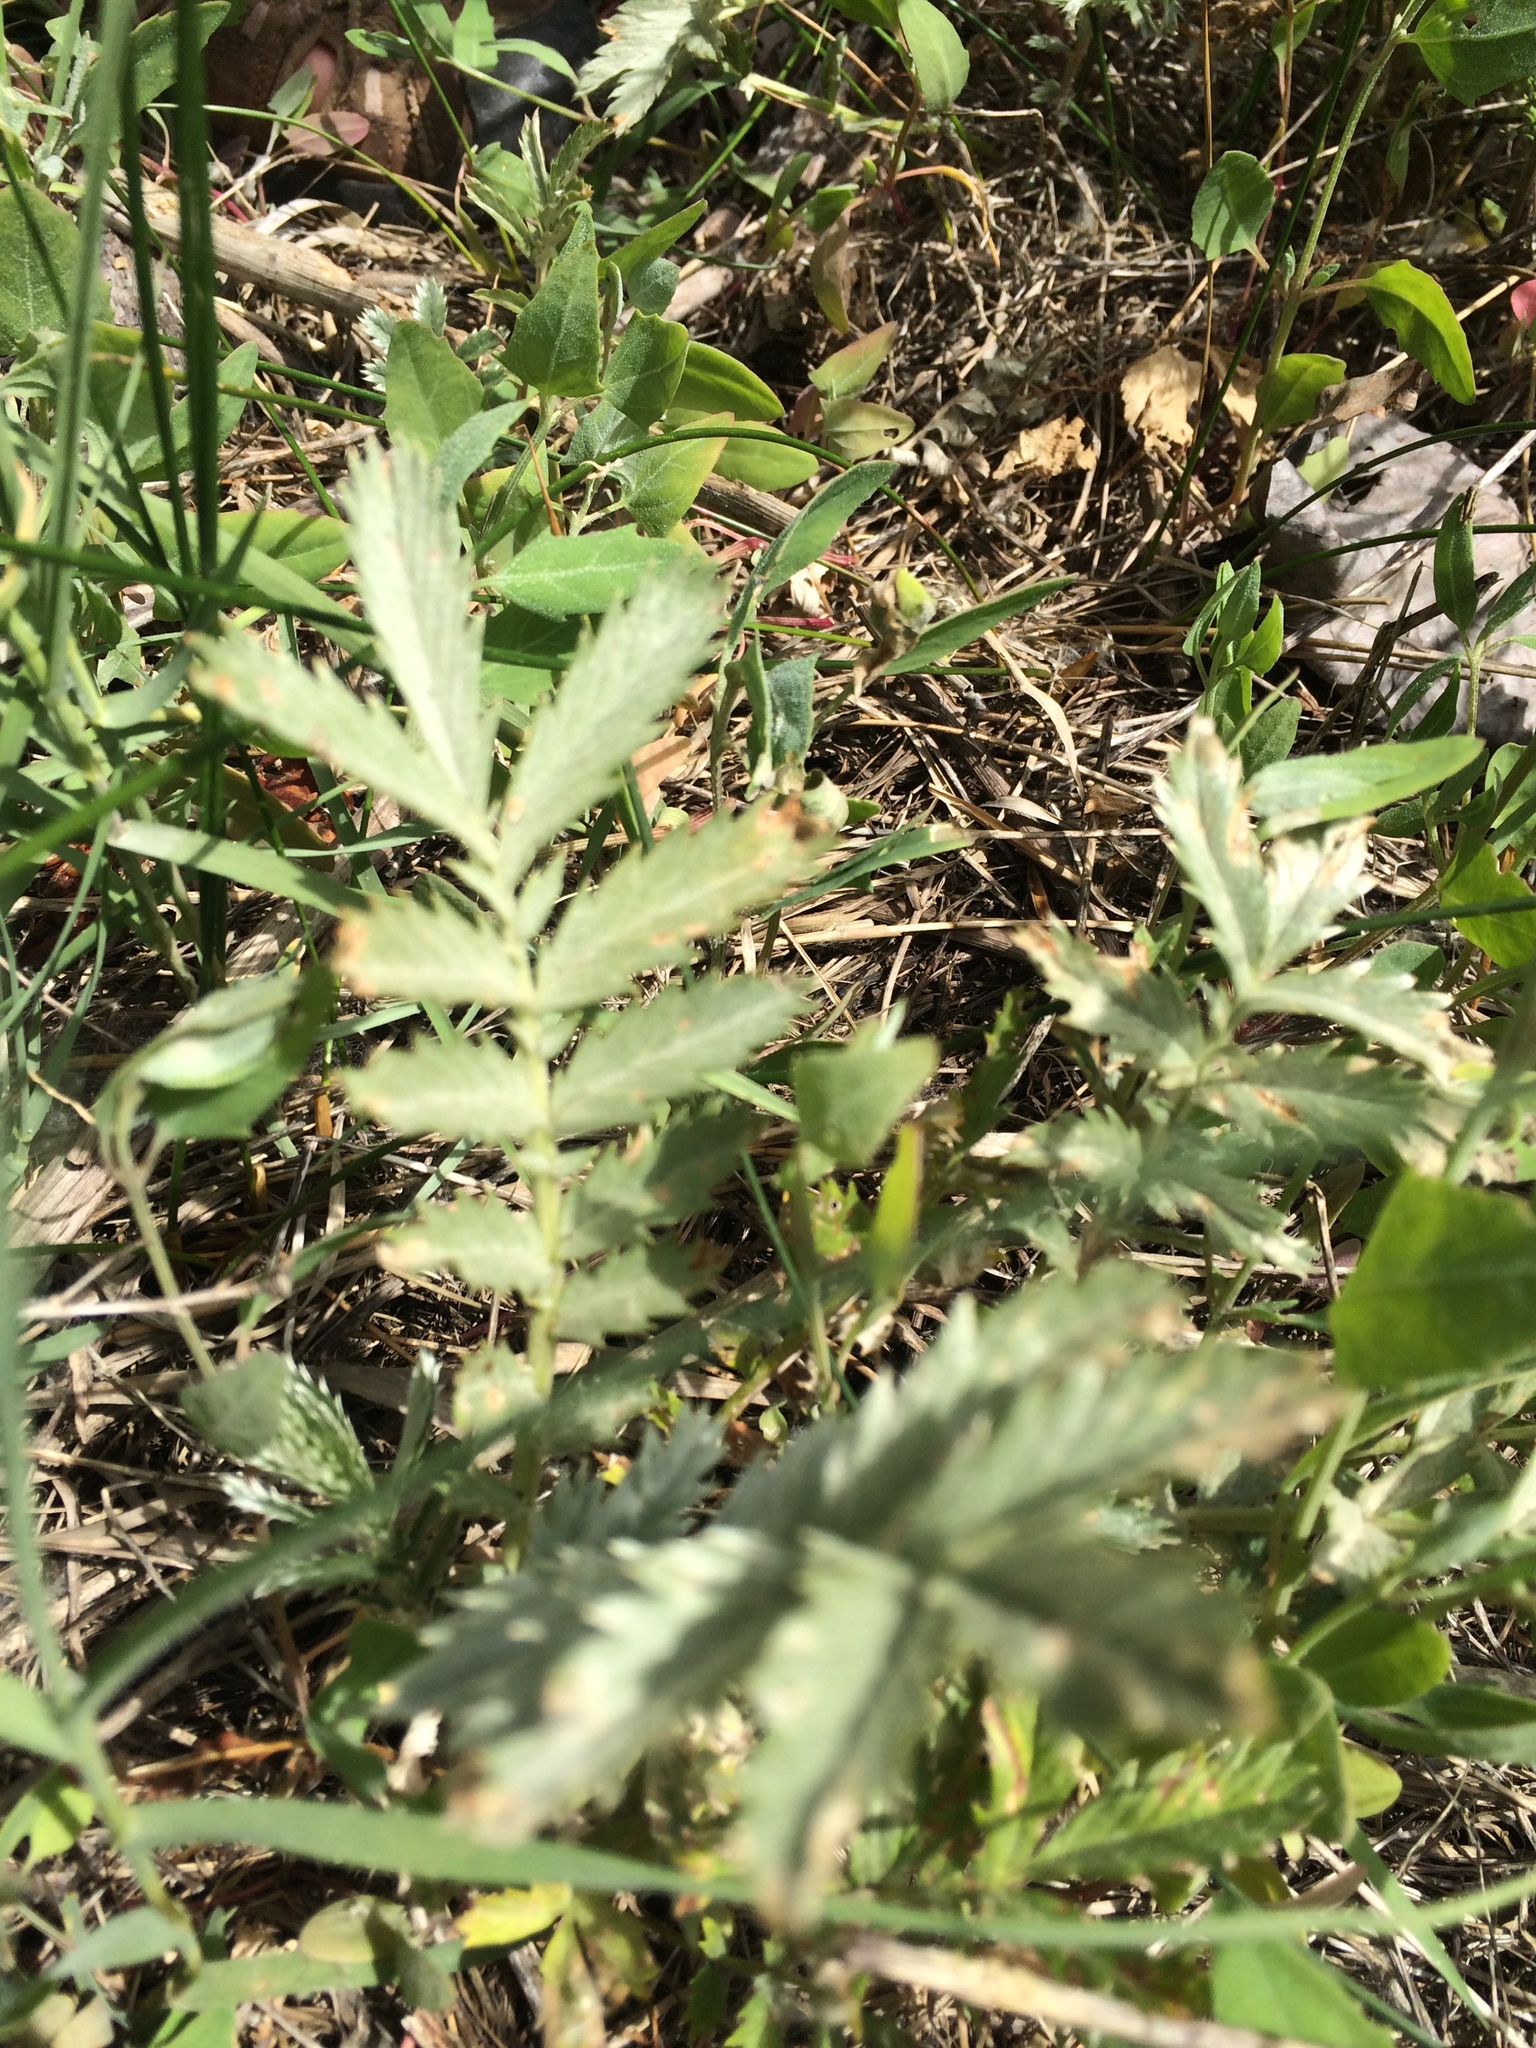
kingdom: Plantae
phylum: Tracheophyta
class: Magnoliopsida
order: Rosales
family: Rosaceae
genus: Argentina
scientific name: Argentina anserina
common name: Common silverweed
